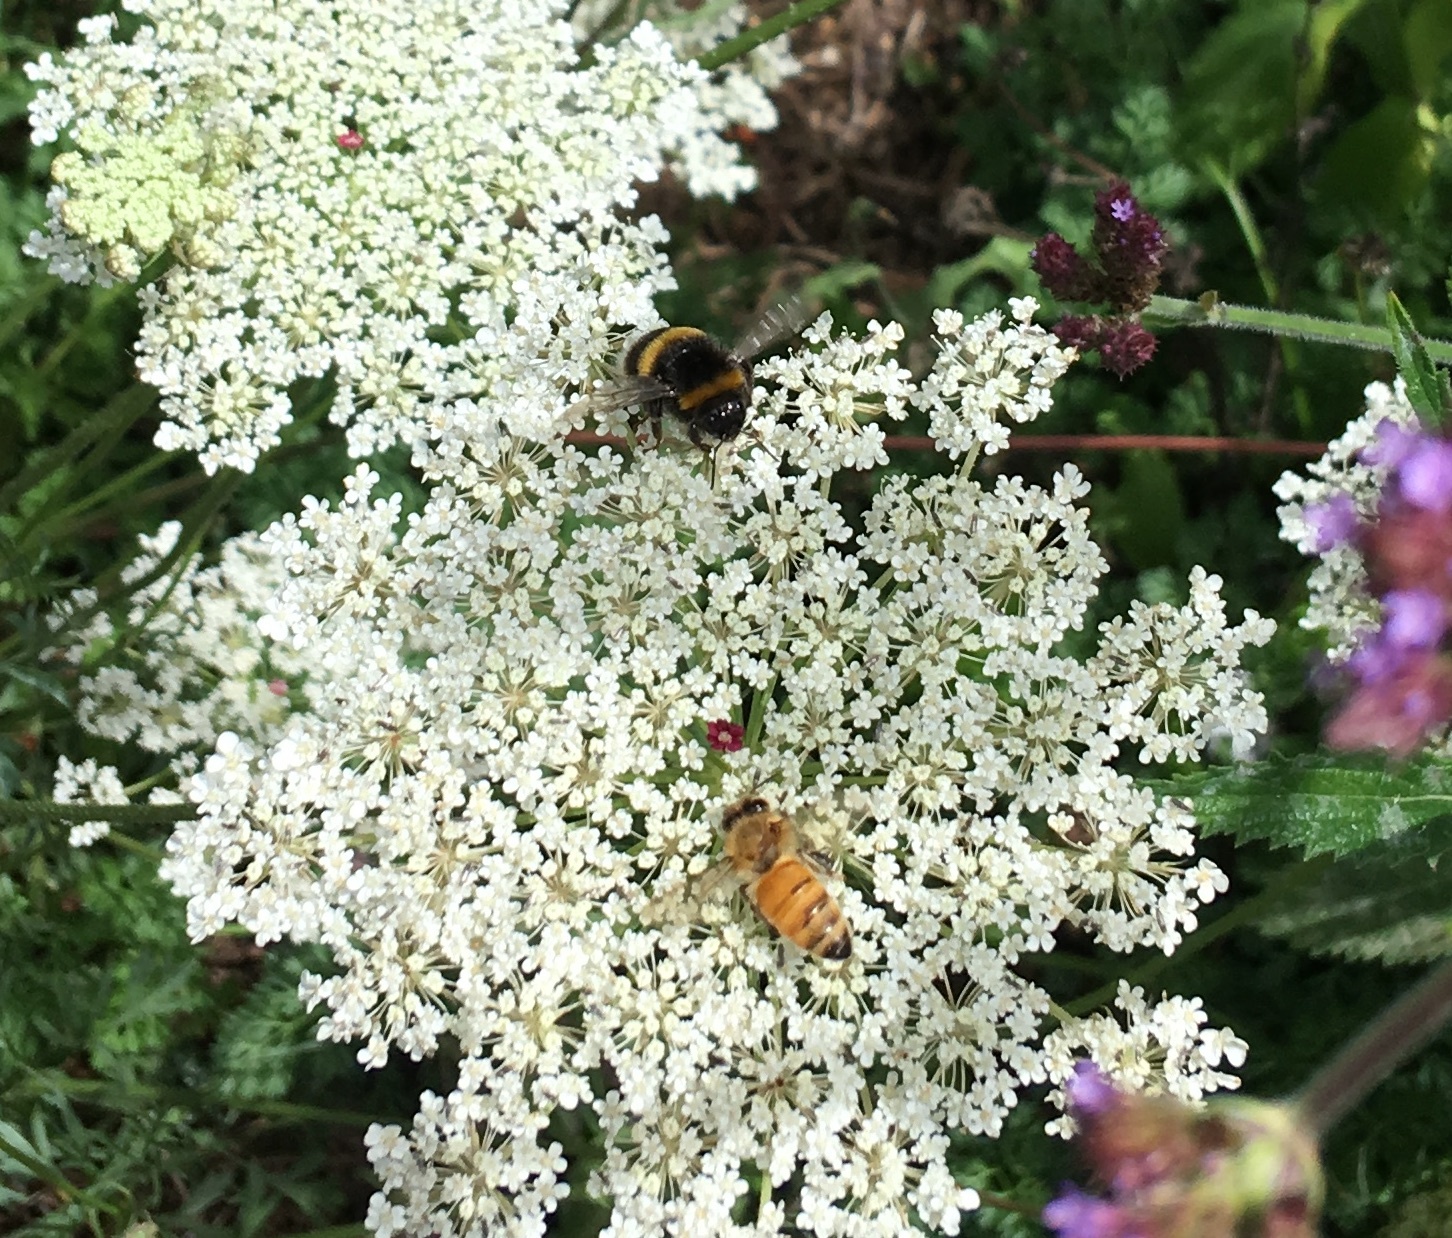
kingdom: Animalia
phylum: Arthropoda
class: Insecta
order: Hymenoptera
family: Apidae
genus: Bombus
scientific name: Bombus terrestris
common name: Buff-tailed bumblebee
